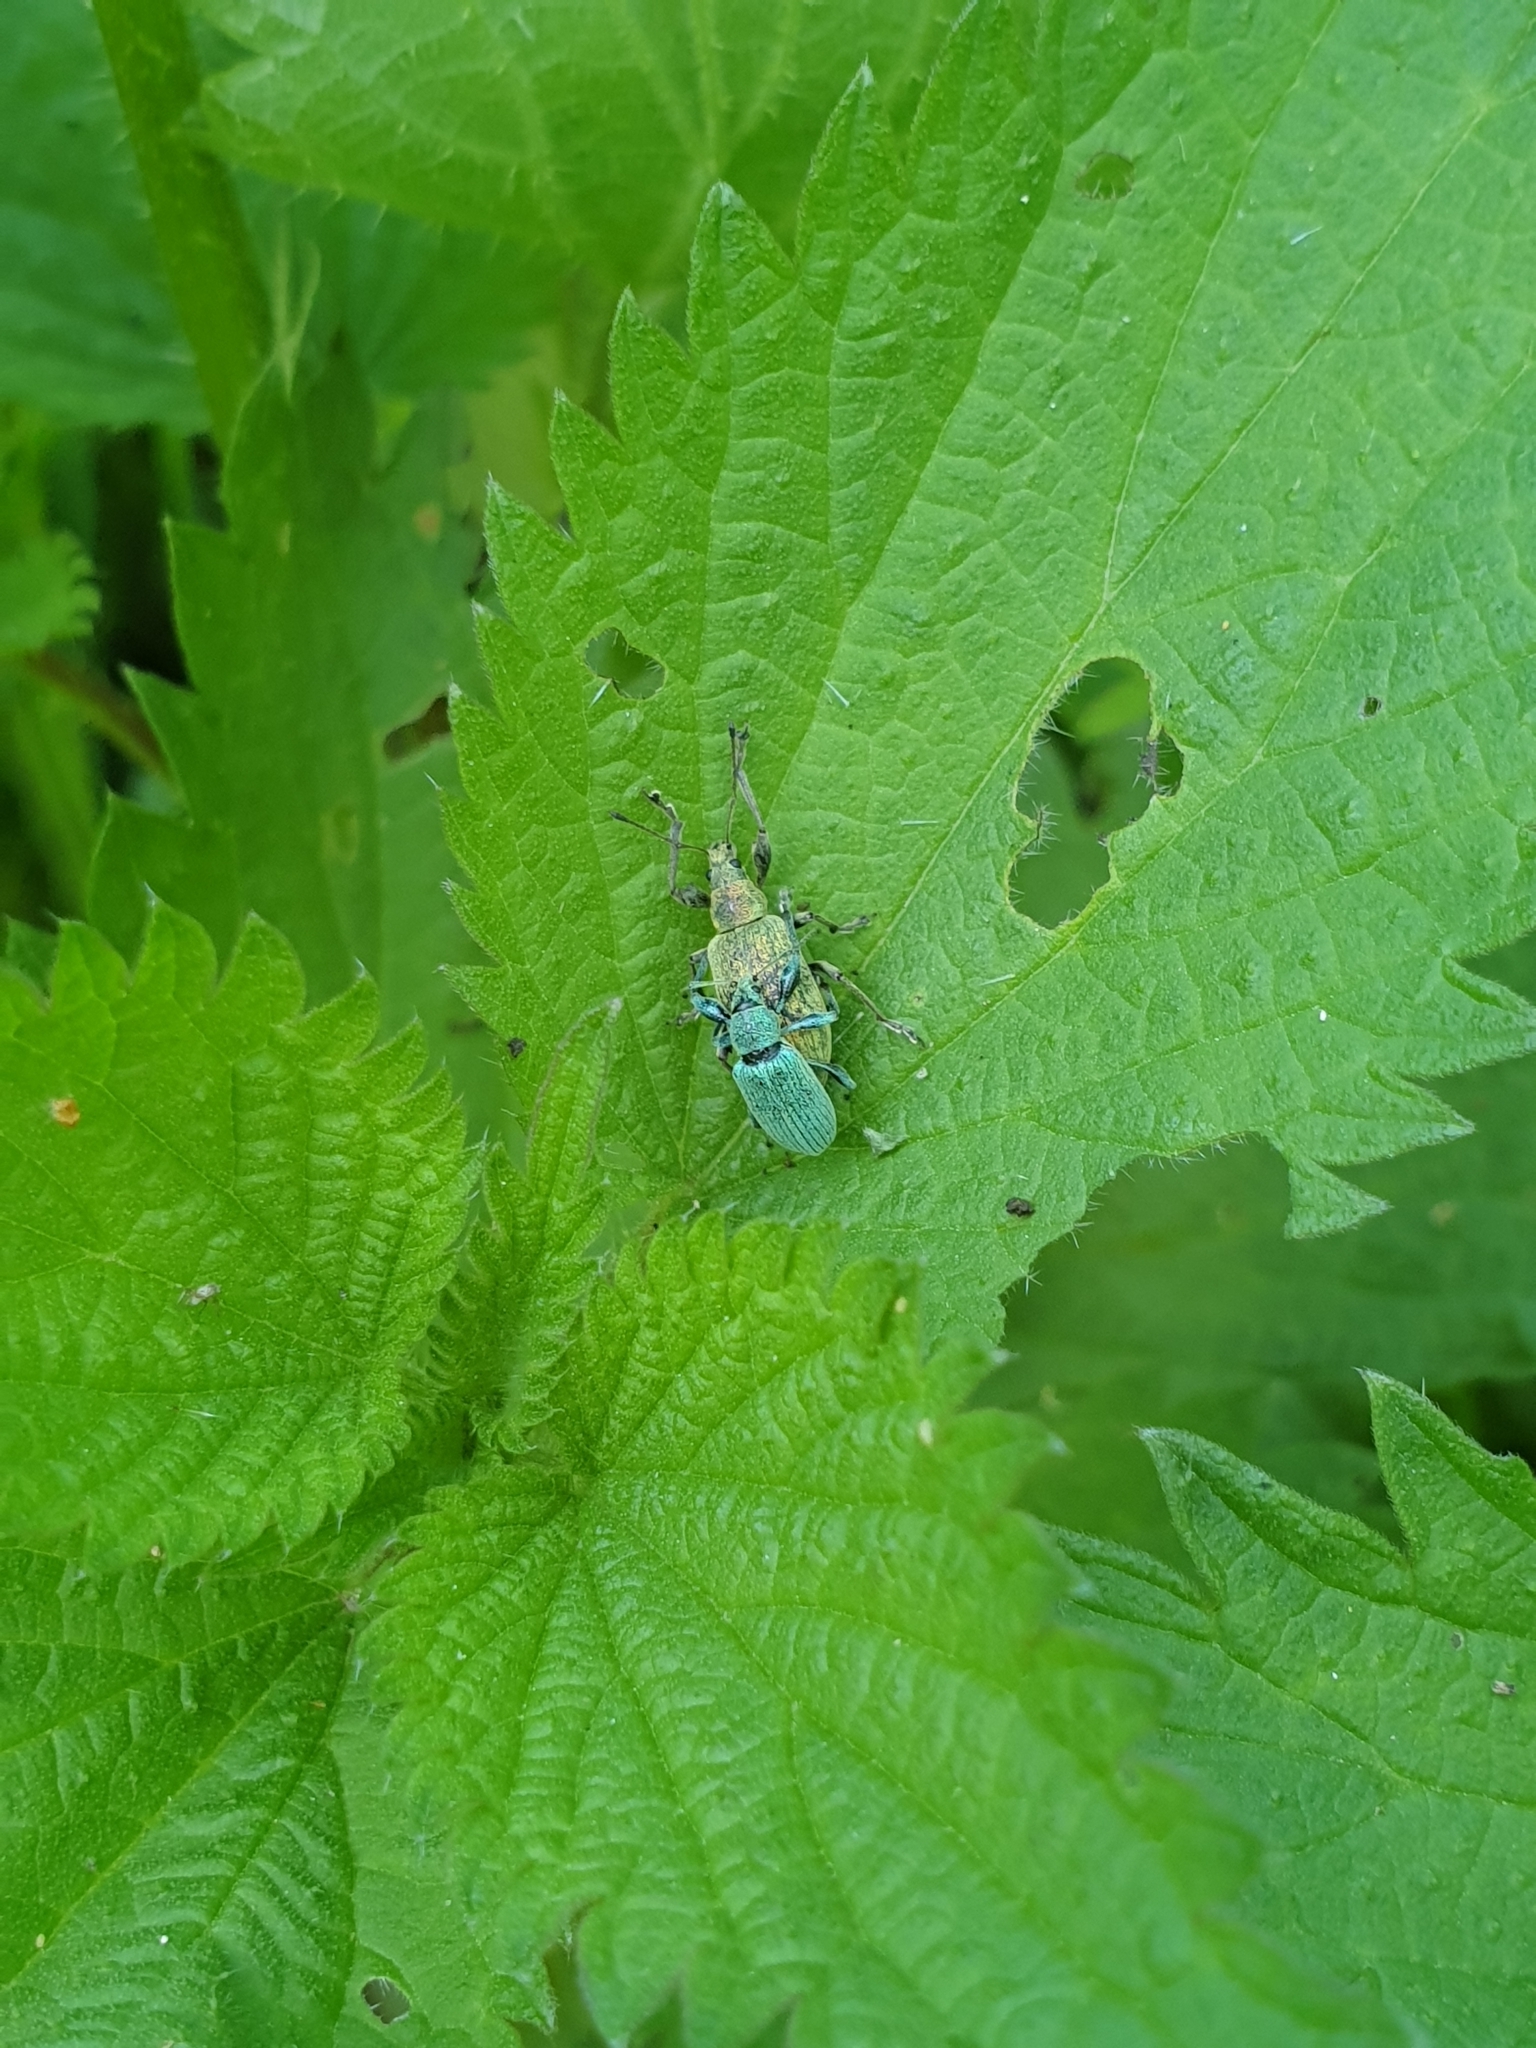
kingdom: Animalia
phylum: Arthropoda
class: Insecta
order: Coleoptera
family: Curculionidae
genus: Phyllobius
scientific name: Phyllobius pomaceus
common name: Green nettle weevil
